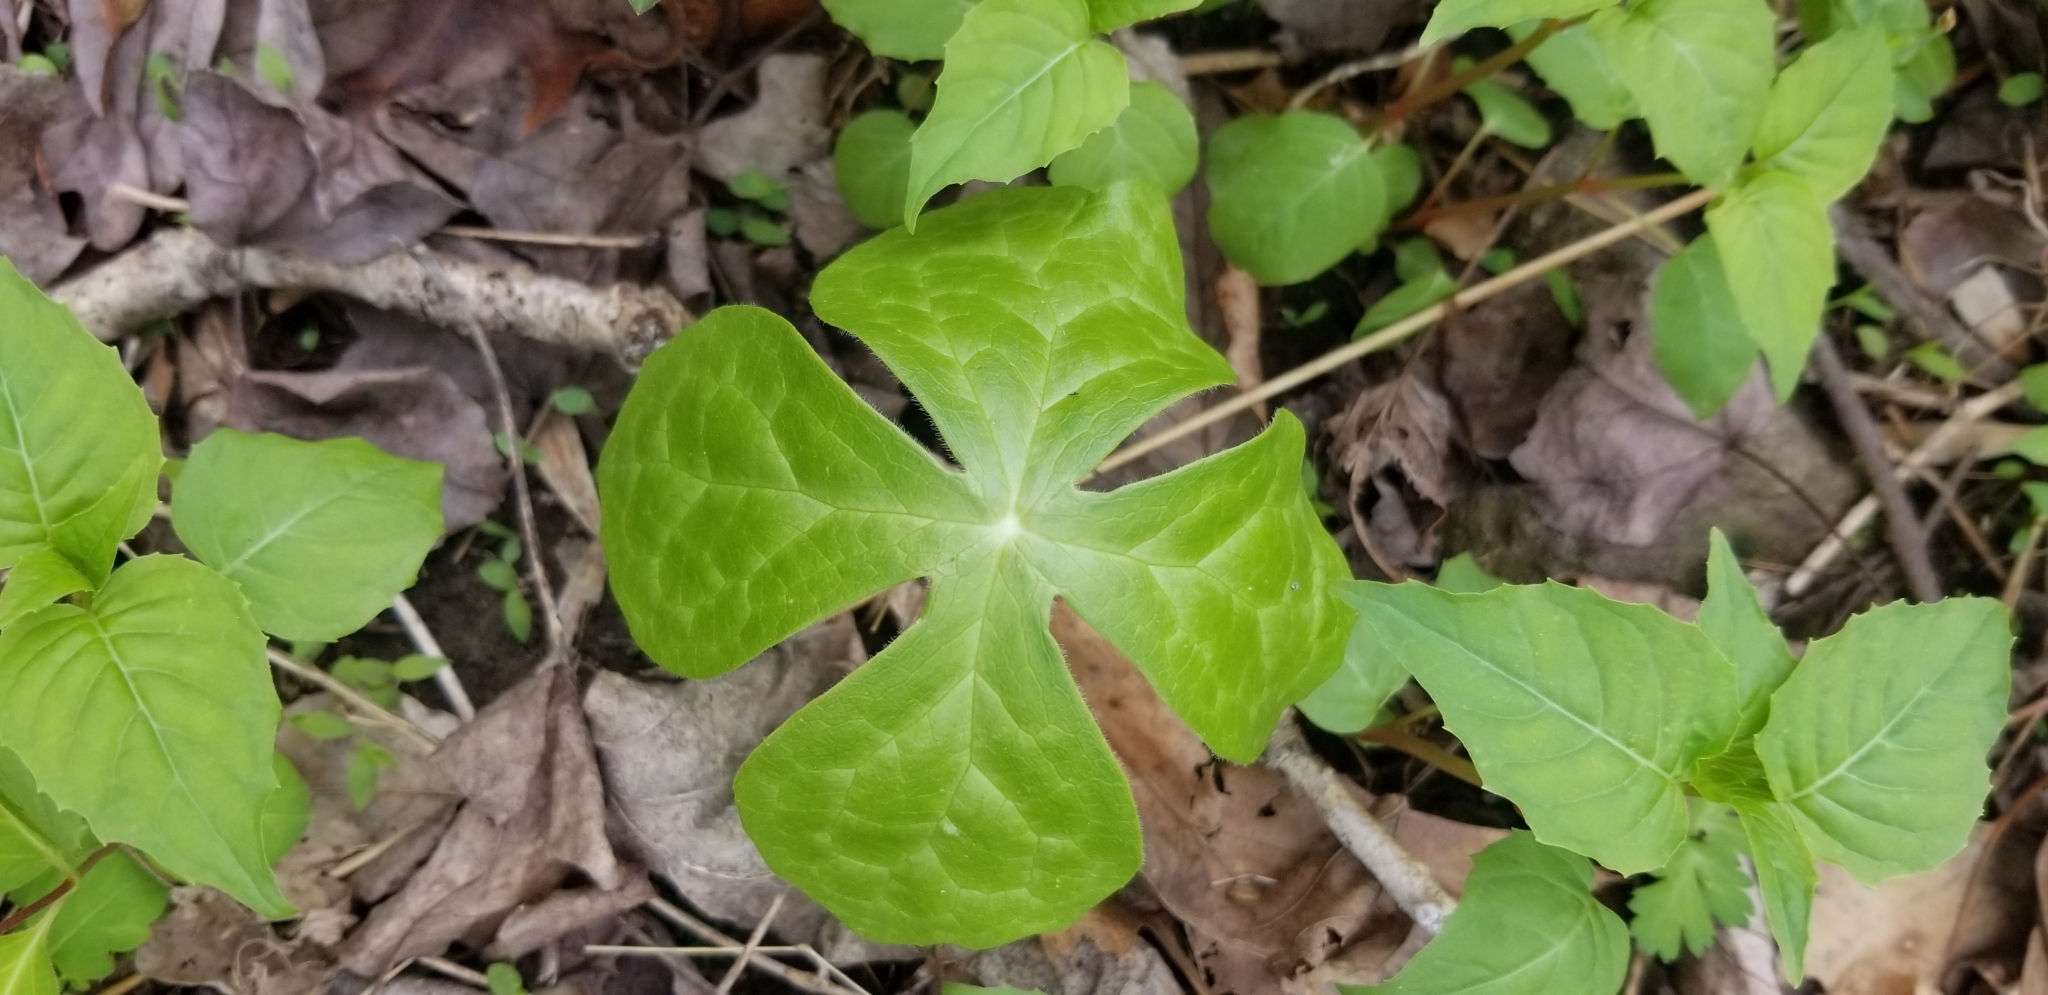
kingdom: Plantae
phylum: Tracheophyta
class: Magnoliopsida
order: Ranunculales
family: Berberidaceae
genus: Podophyllum
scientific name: Podophyllum peltatum
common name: Wild mandrake
